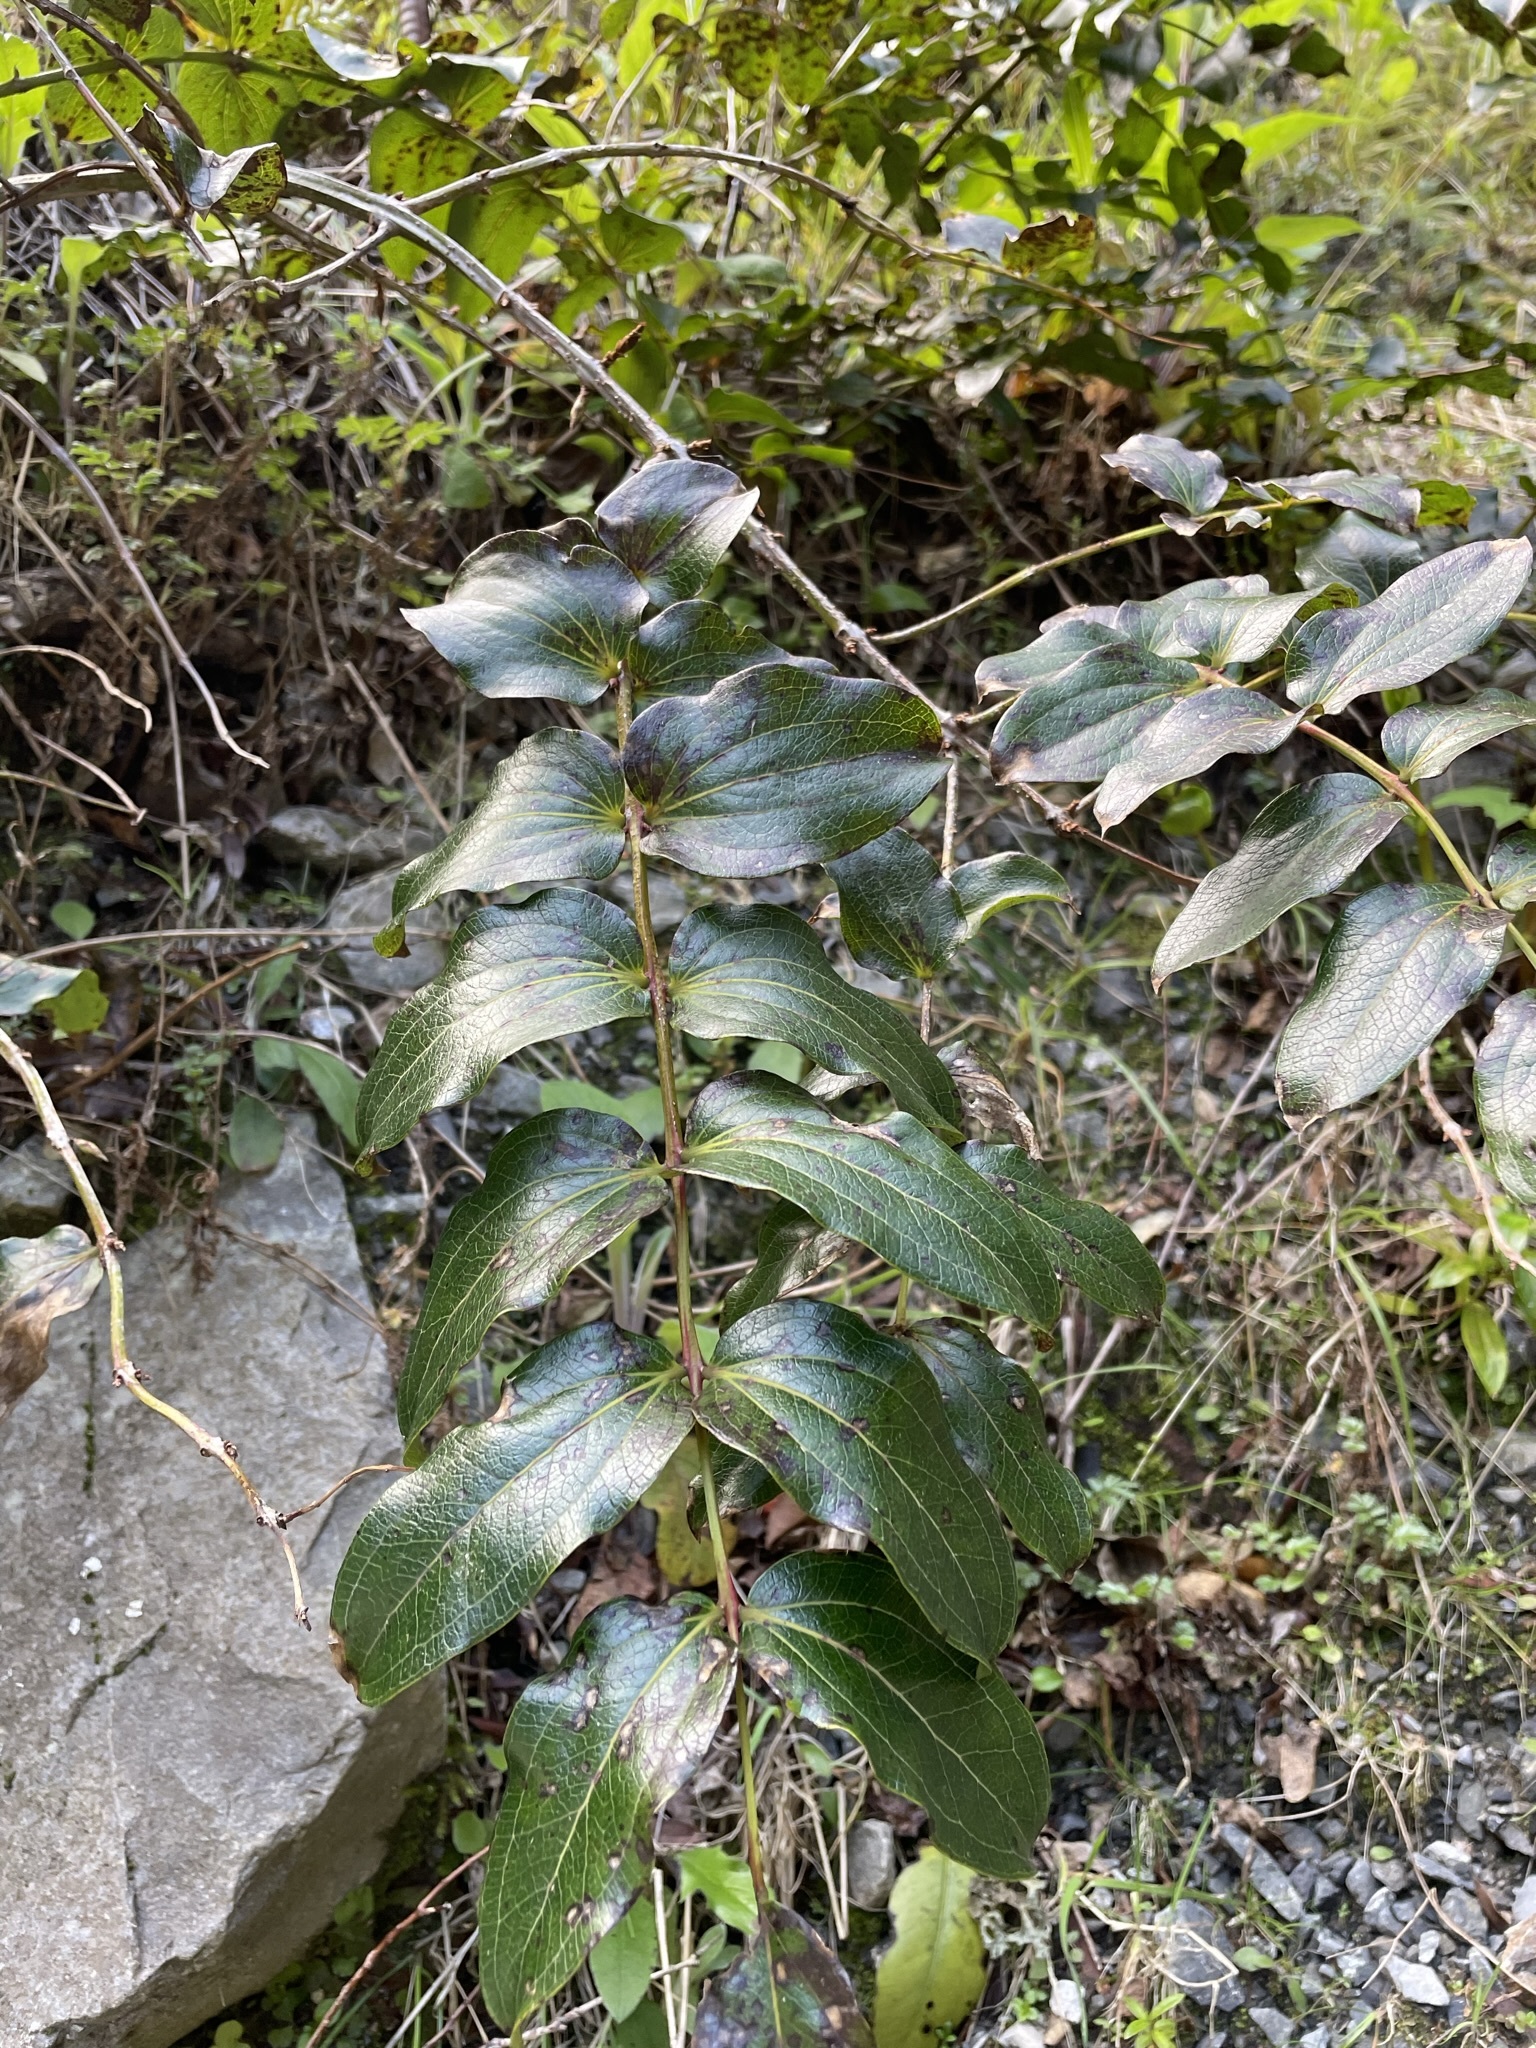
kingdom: Plantae
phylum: Tracheophyta
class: Magnoliopsida
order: Cucurbitales
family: Coriariaceae
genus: Coriaria
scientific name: Coriaria arborea
